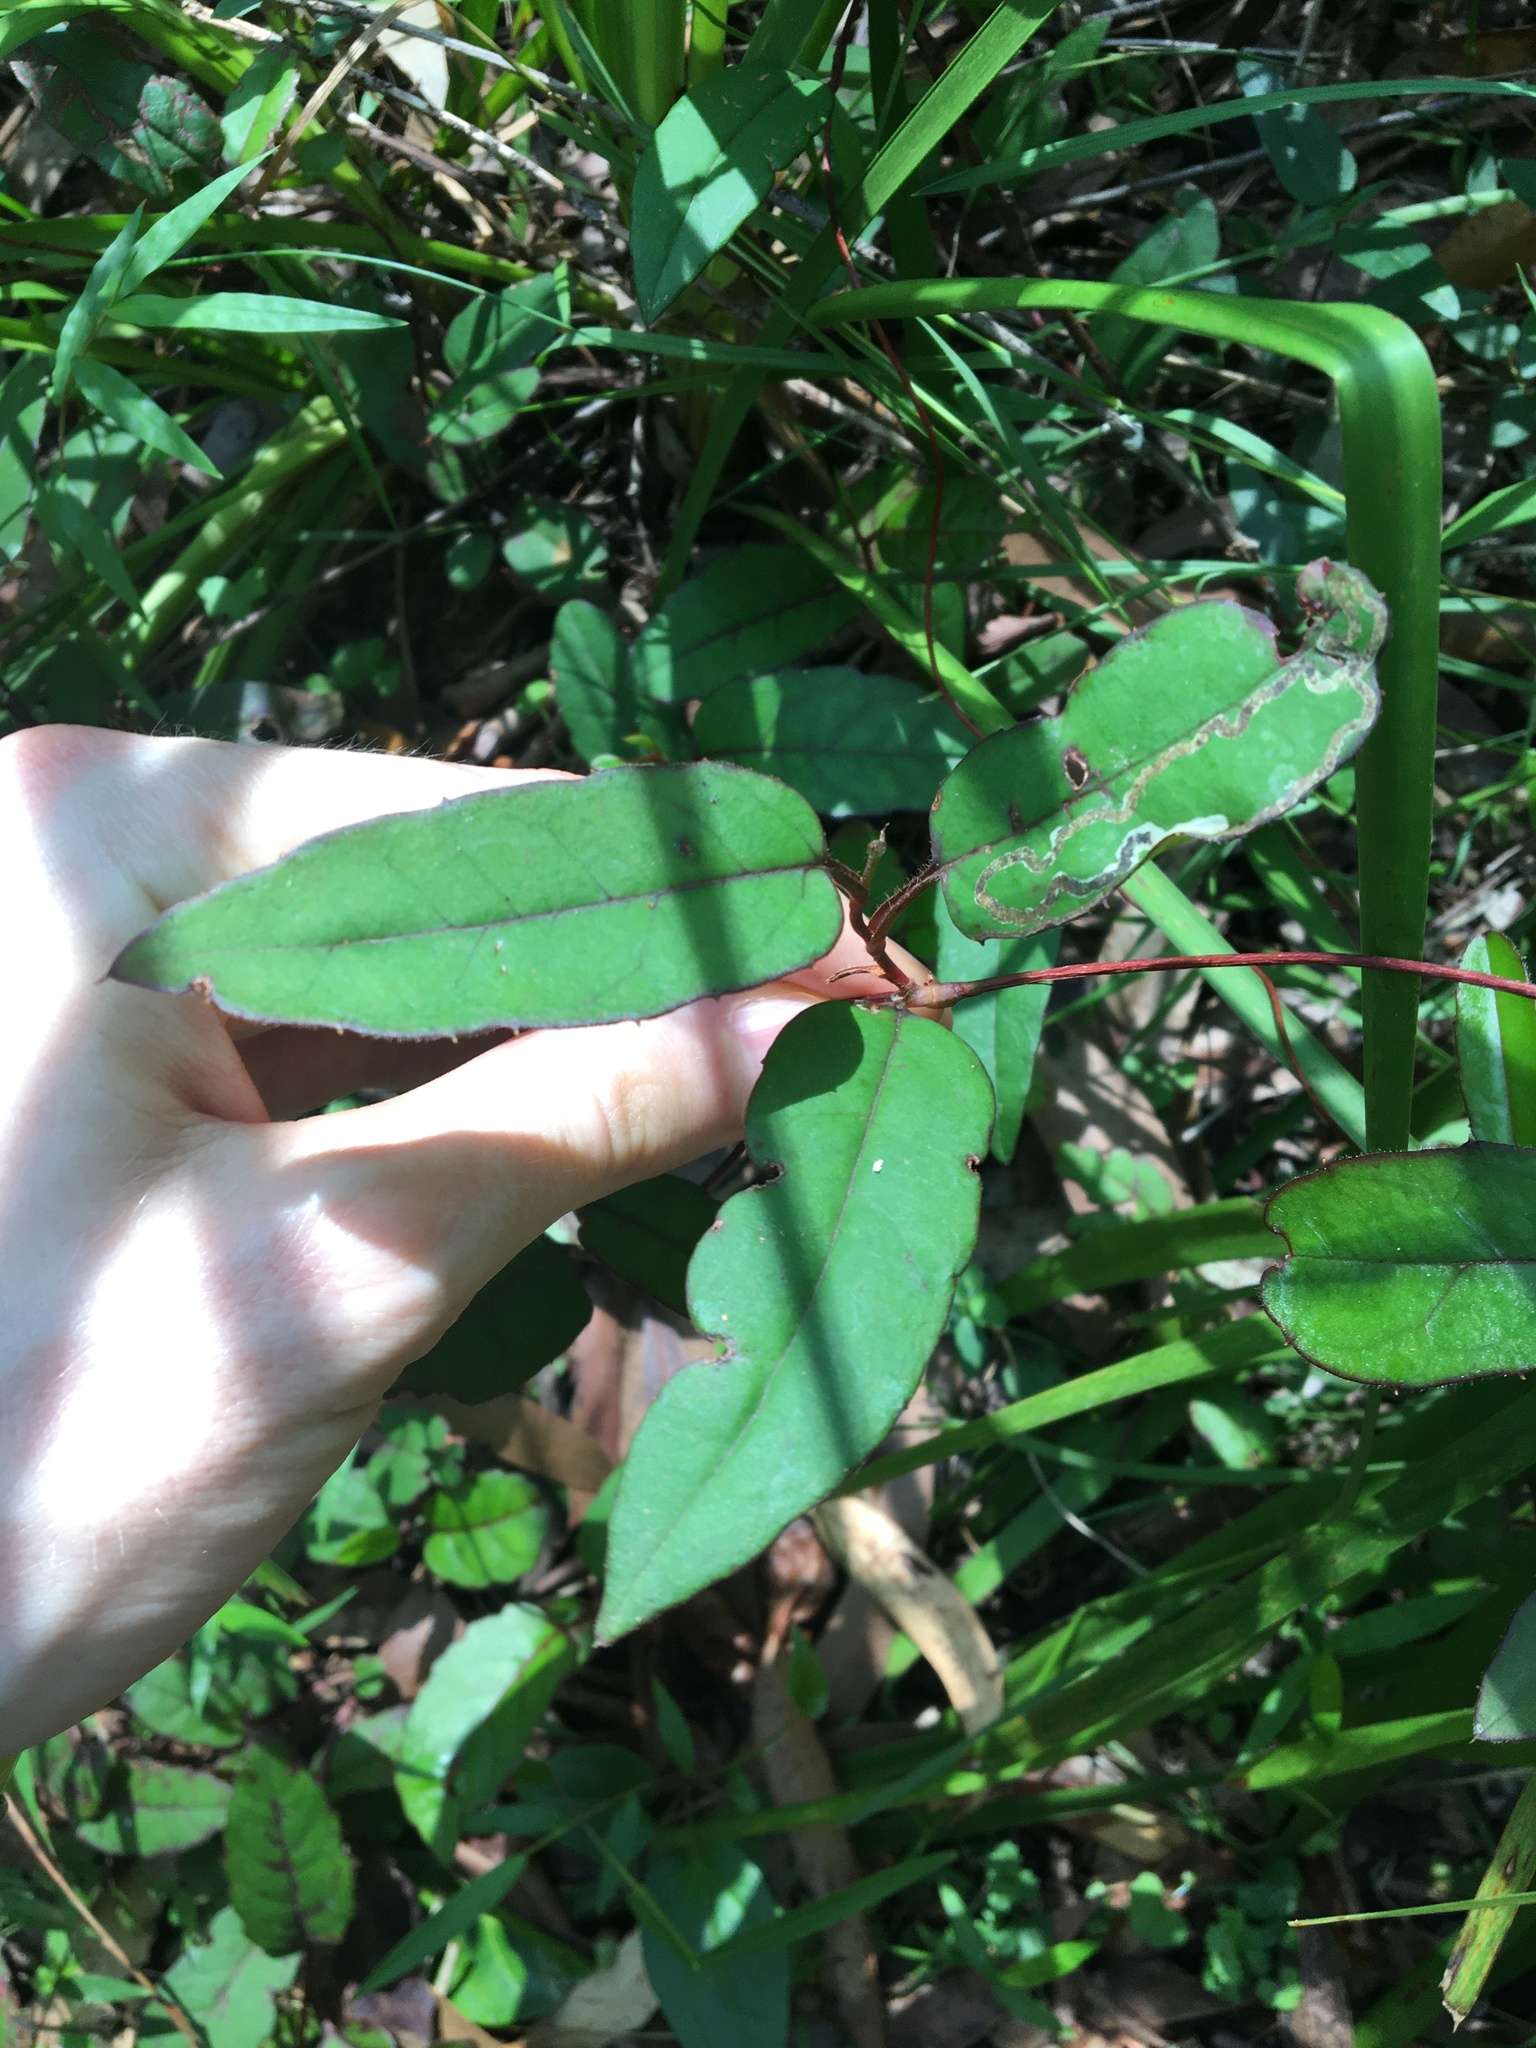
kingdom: Plantae
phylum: Tracheophyta
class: Magnoliopsida
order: Dilleniales
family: Dilleniaceae
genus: Hibbertia
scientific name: Hibbertia dentata
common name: Trailing guinea-flower
